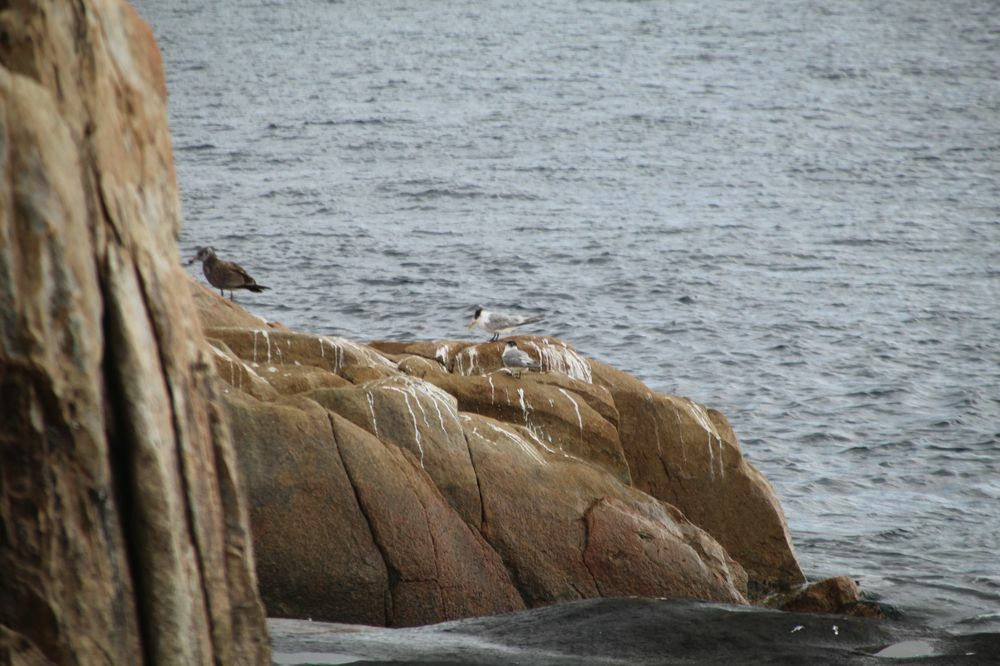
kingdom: Animalia
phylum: Chordata
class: Aves
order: Charadriiformes
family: Laridae
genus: Thalasseus
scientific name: Thalasseus bergii
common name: Greater crested tern
